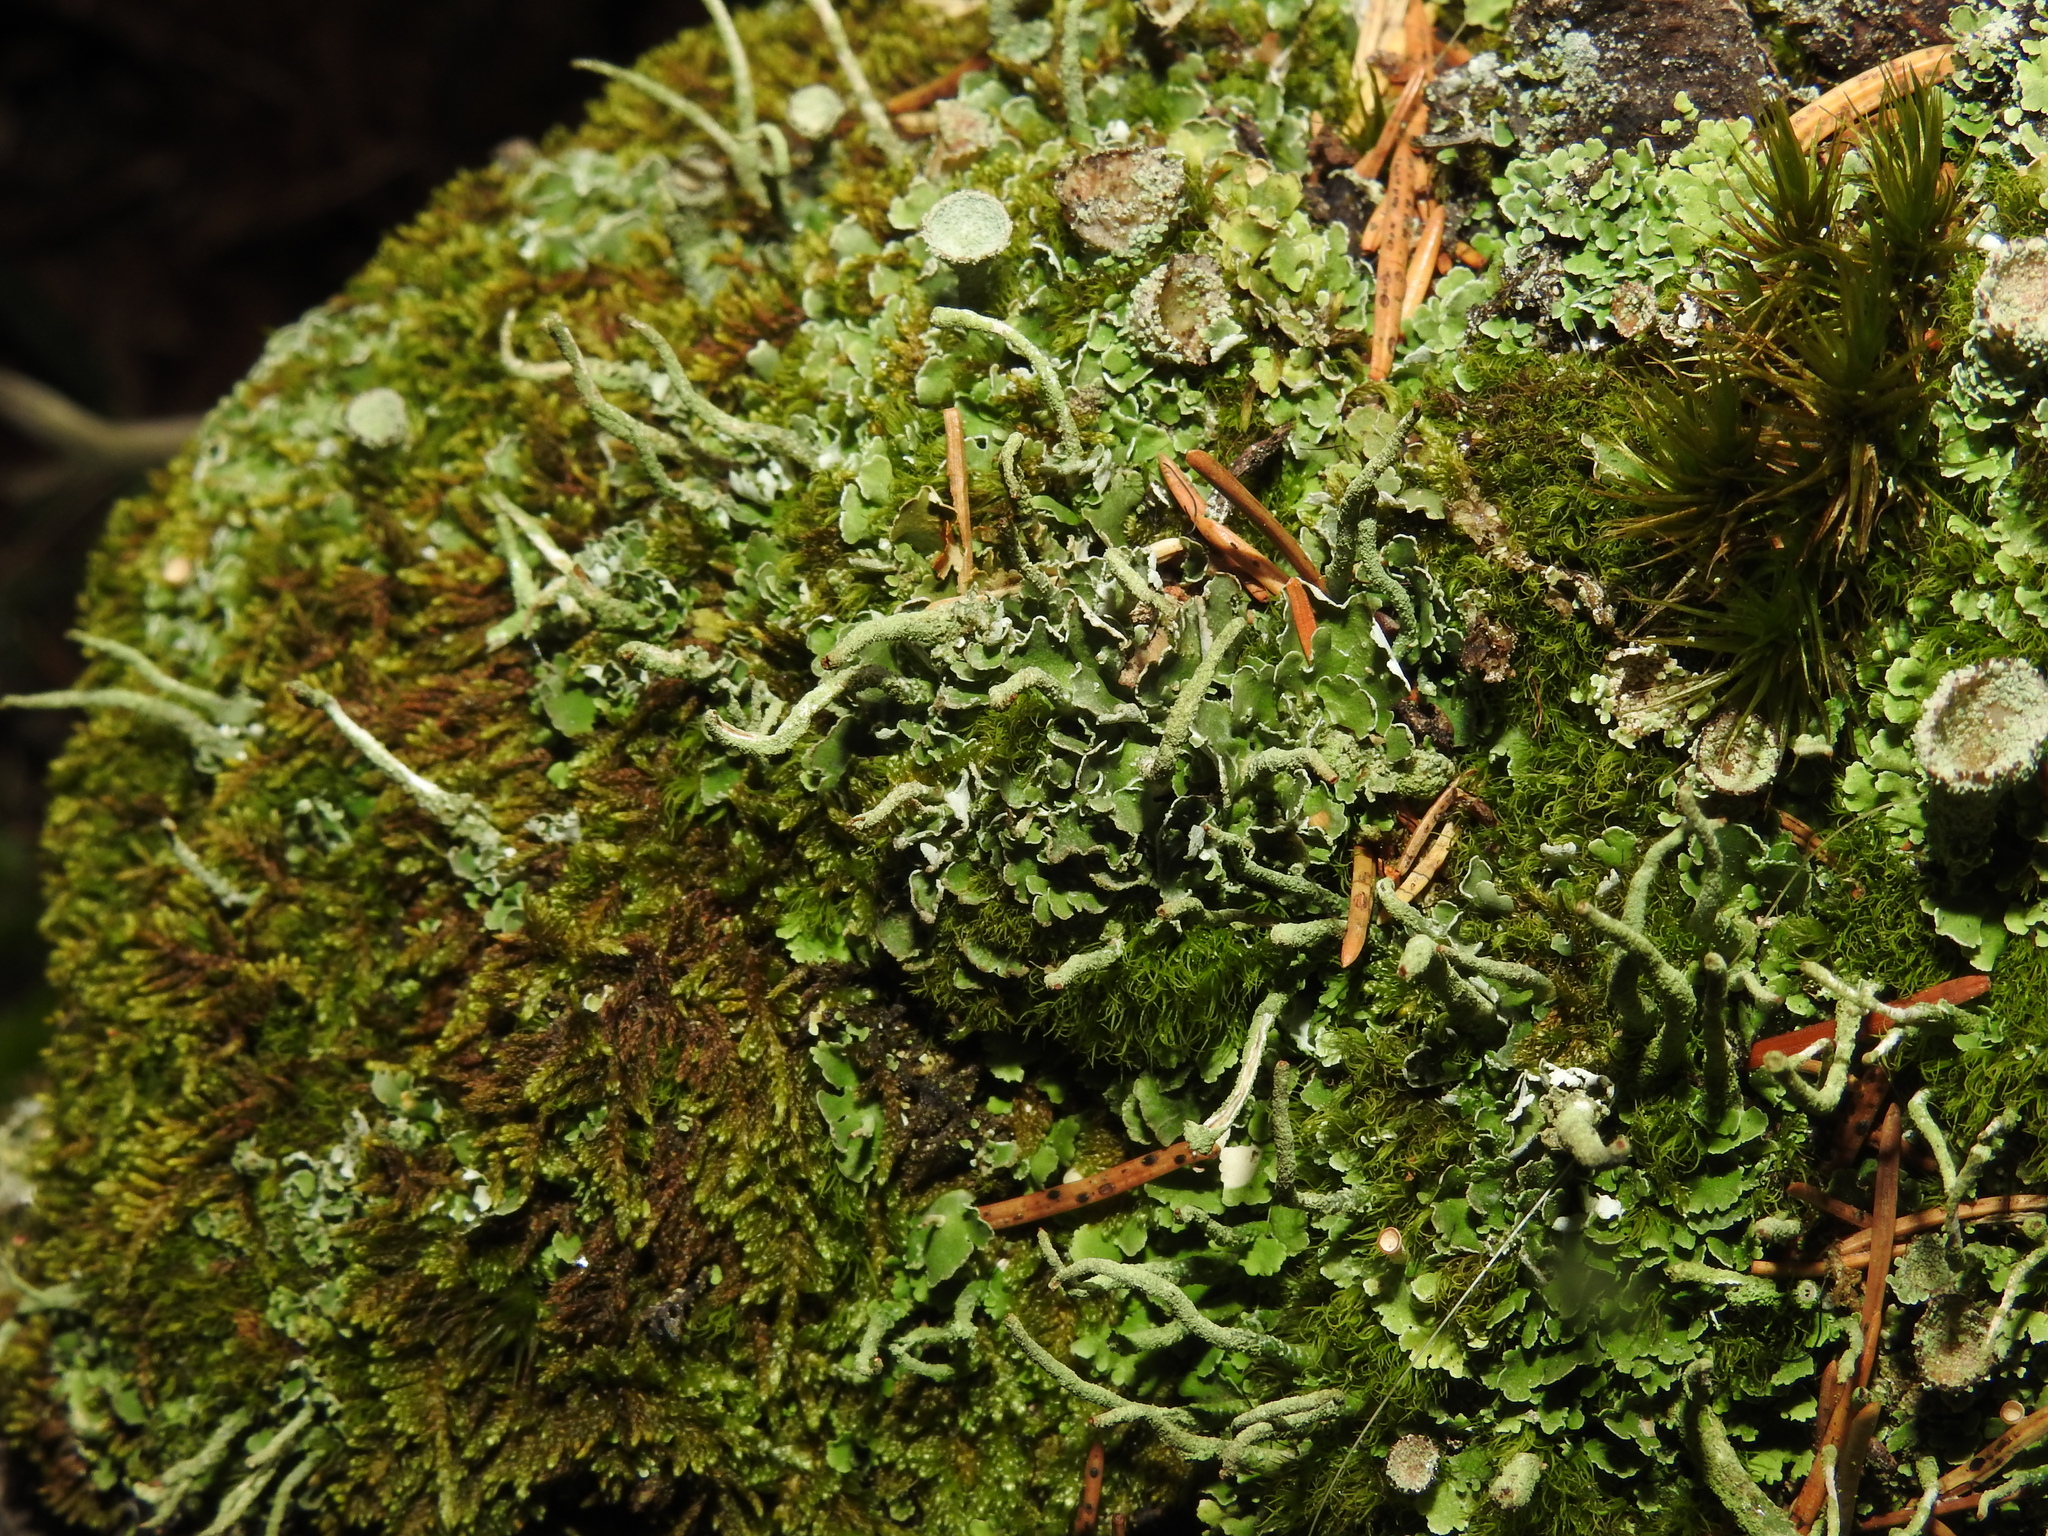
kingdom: Fungi
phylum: Ascomycota
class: Lecanoromycetes
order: Lecanorales
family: Cladoniaceae
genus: Cladonia
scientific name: Cladonia coniocraea
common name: Common powderhorn
